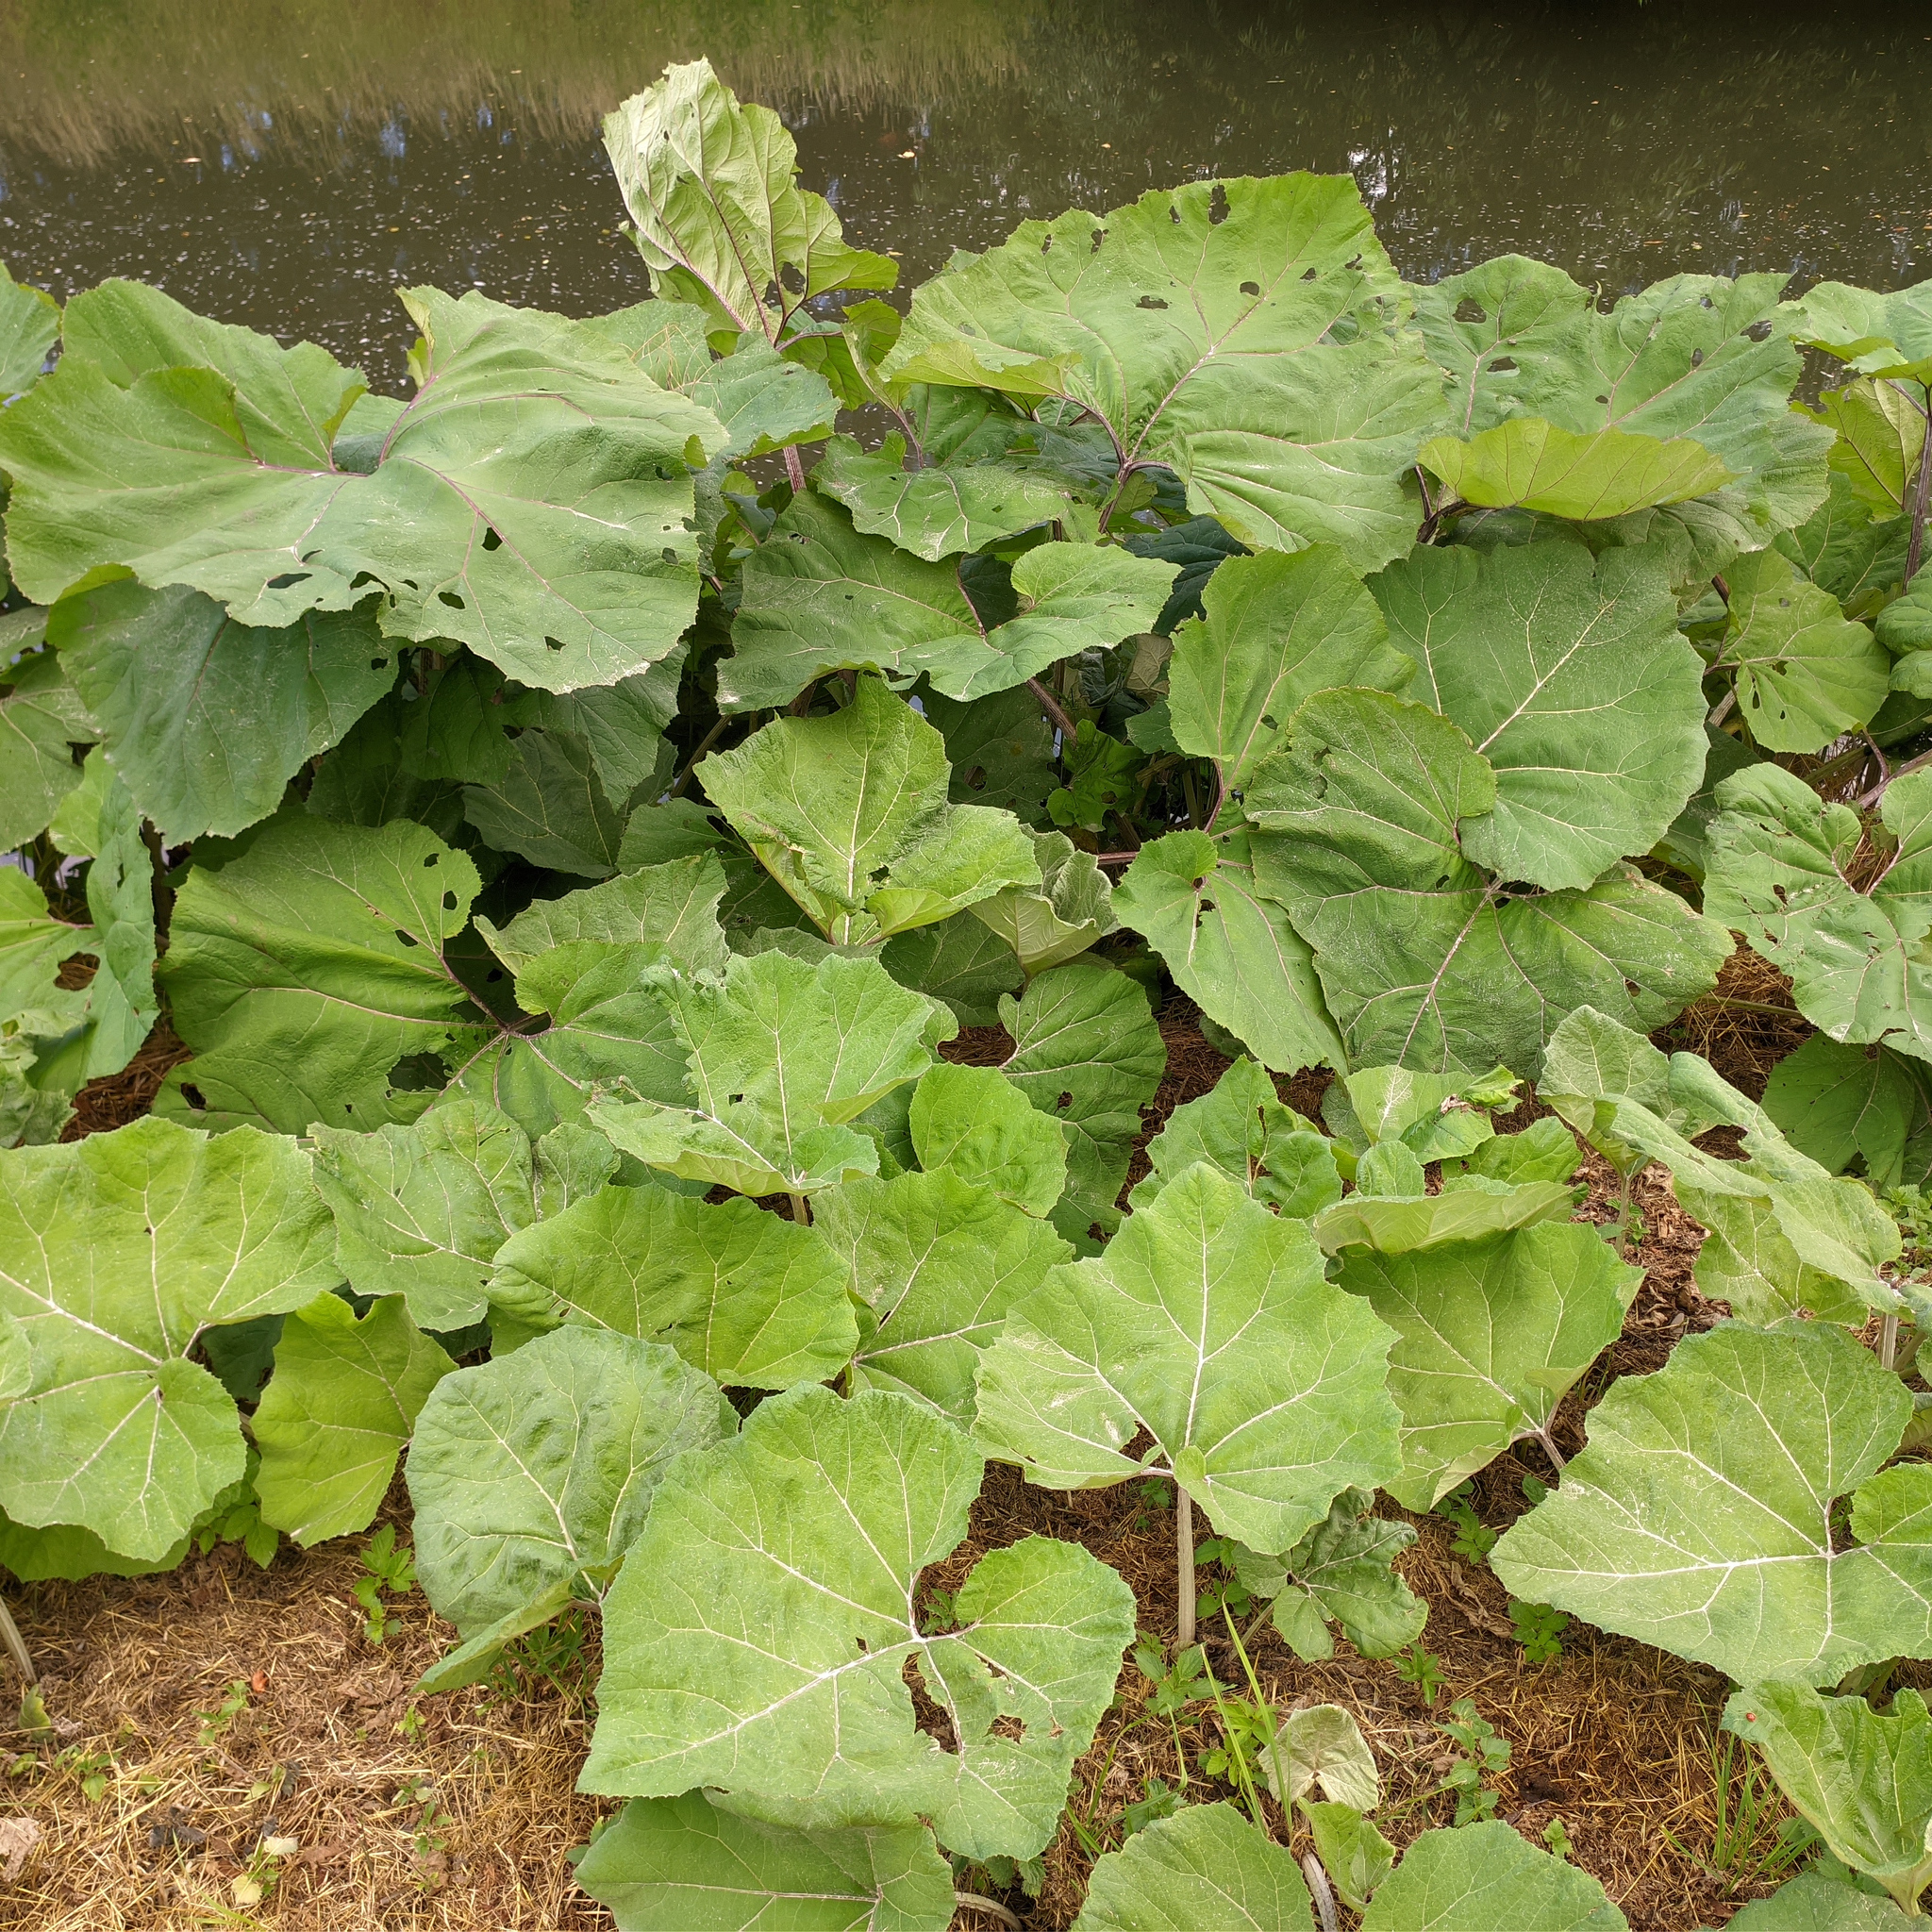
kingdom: Plantae
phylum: Tracheophyta
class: Magnoliopsida
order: Asterales
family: Asteraceae
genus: Petasites
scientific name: Petasites hybridus
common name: Butterbur
